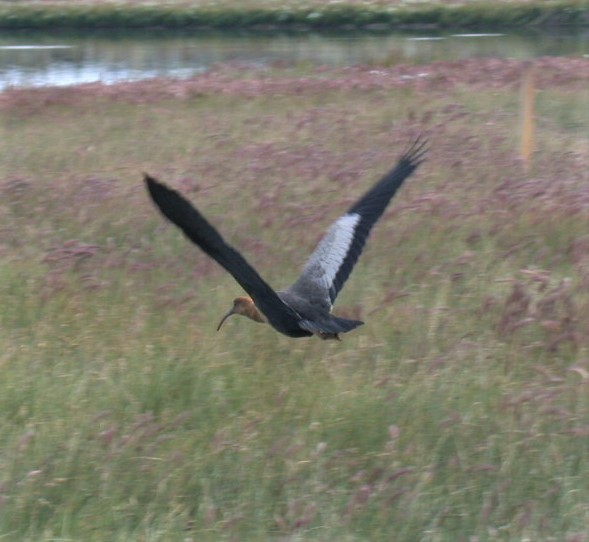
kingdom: Animalia
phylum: Chordata
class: Aves
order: Pelecaniformes
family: Threskiornithidae
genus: Theristicus
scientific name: Theristicus melanopis
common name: Black-faced ibis
